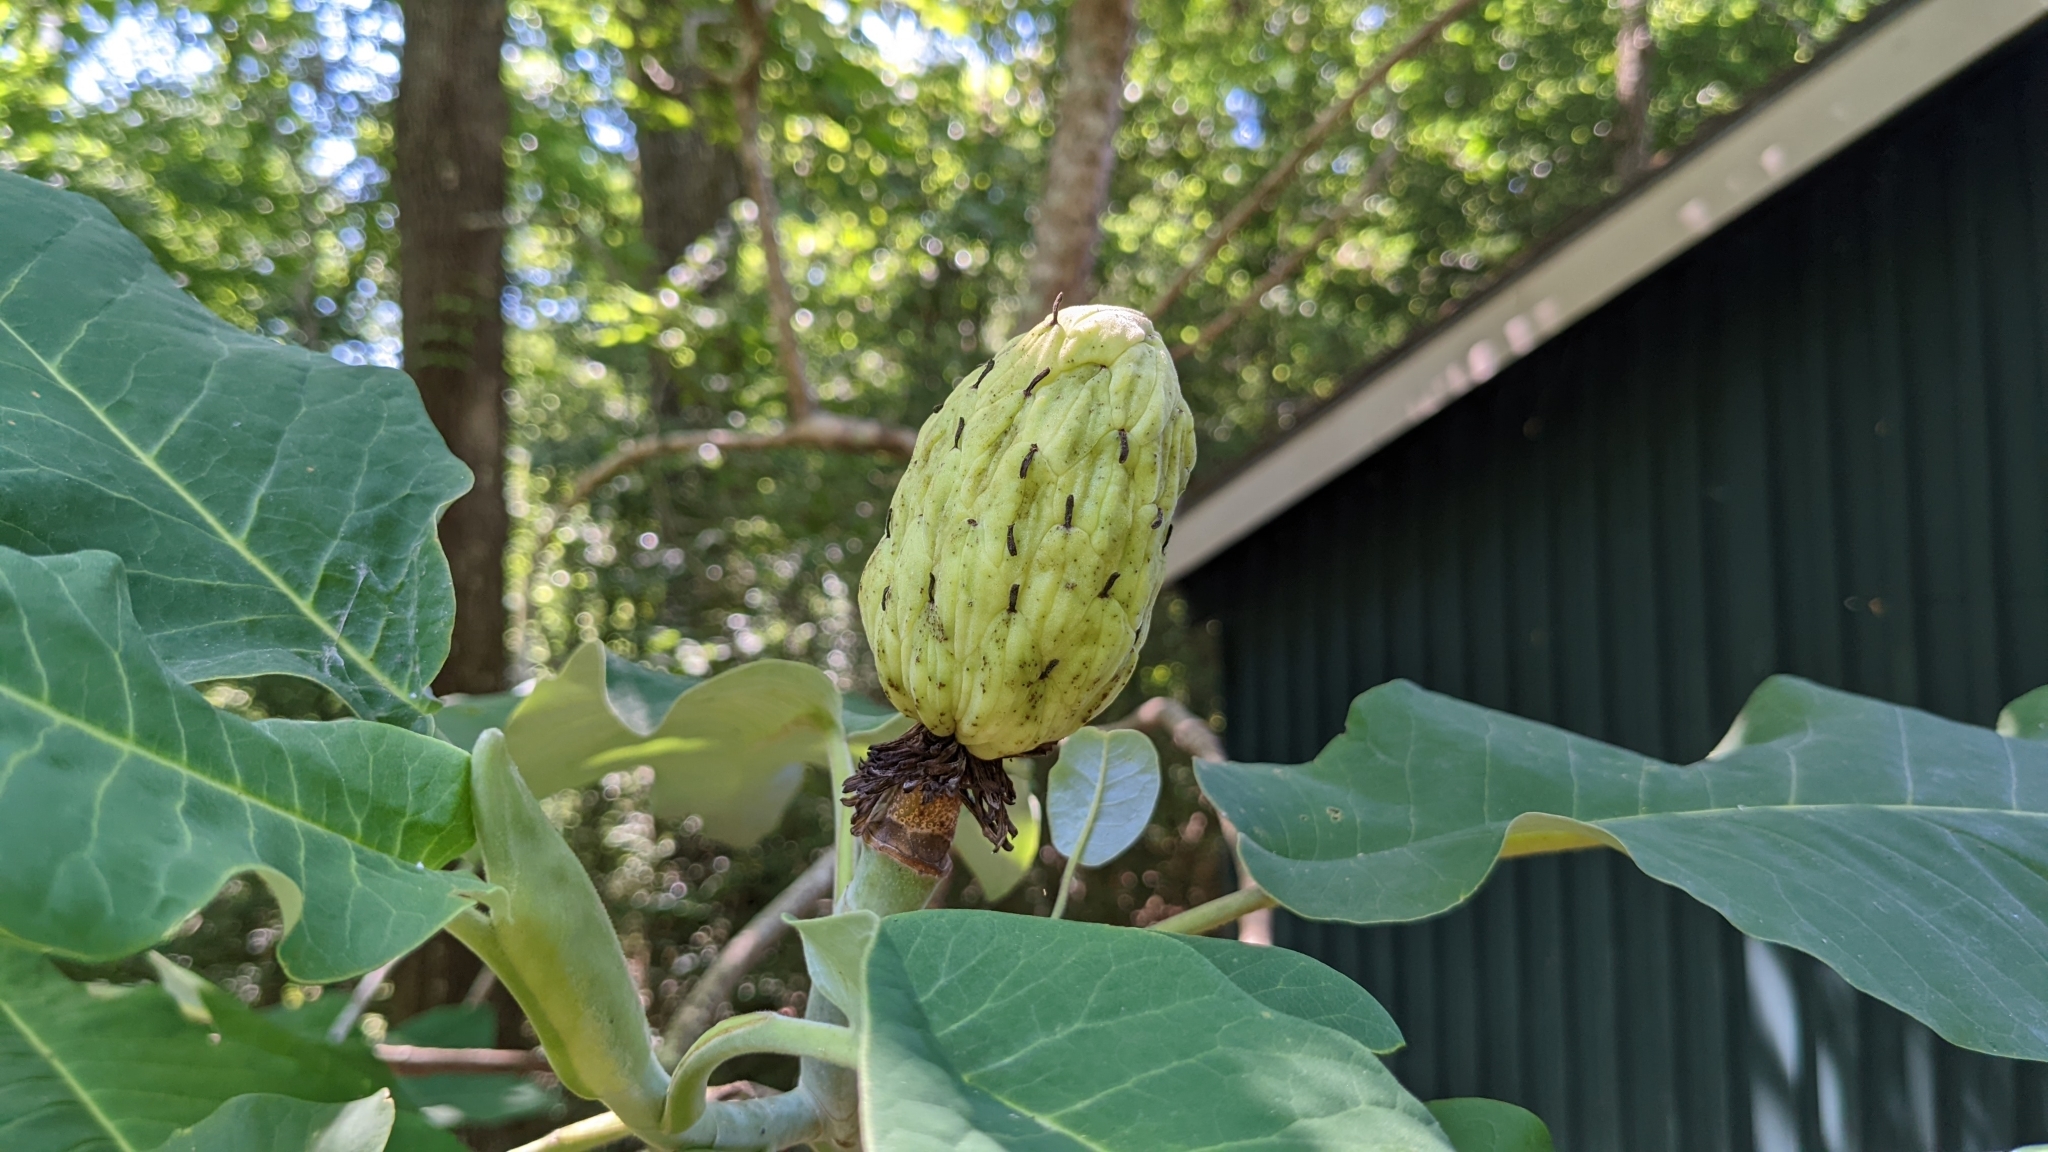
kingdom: Plantae
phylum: Tracheophyta
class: Magnoliopsida
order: Magnoliales
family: Magnoliaceae
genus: Magnolia
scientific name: Magnolia macrophylla
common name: Big-leaf magnolia
